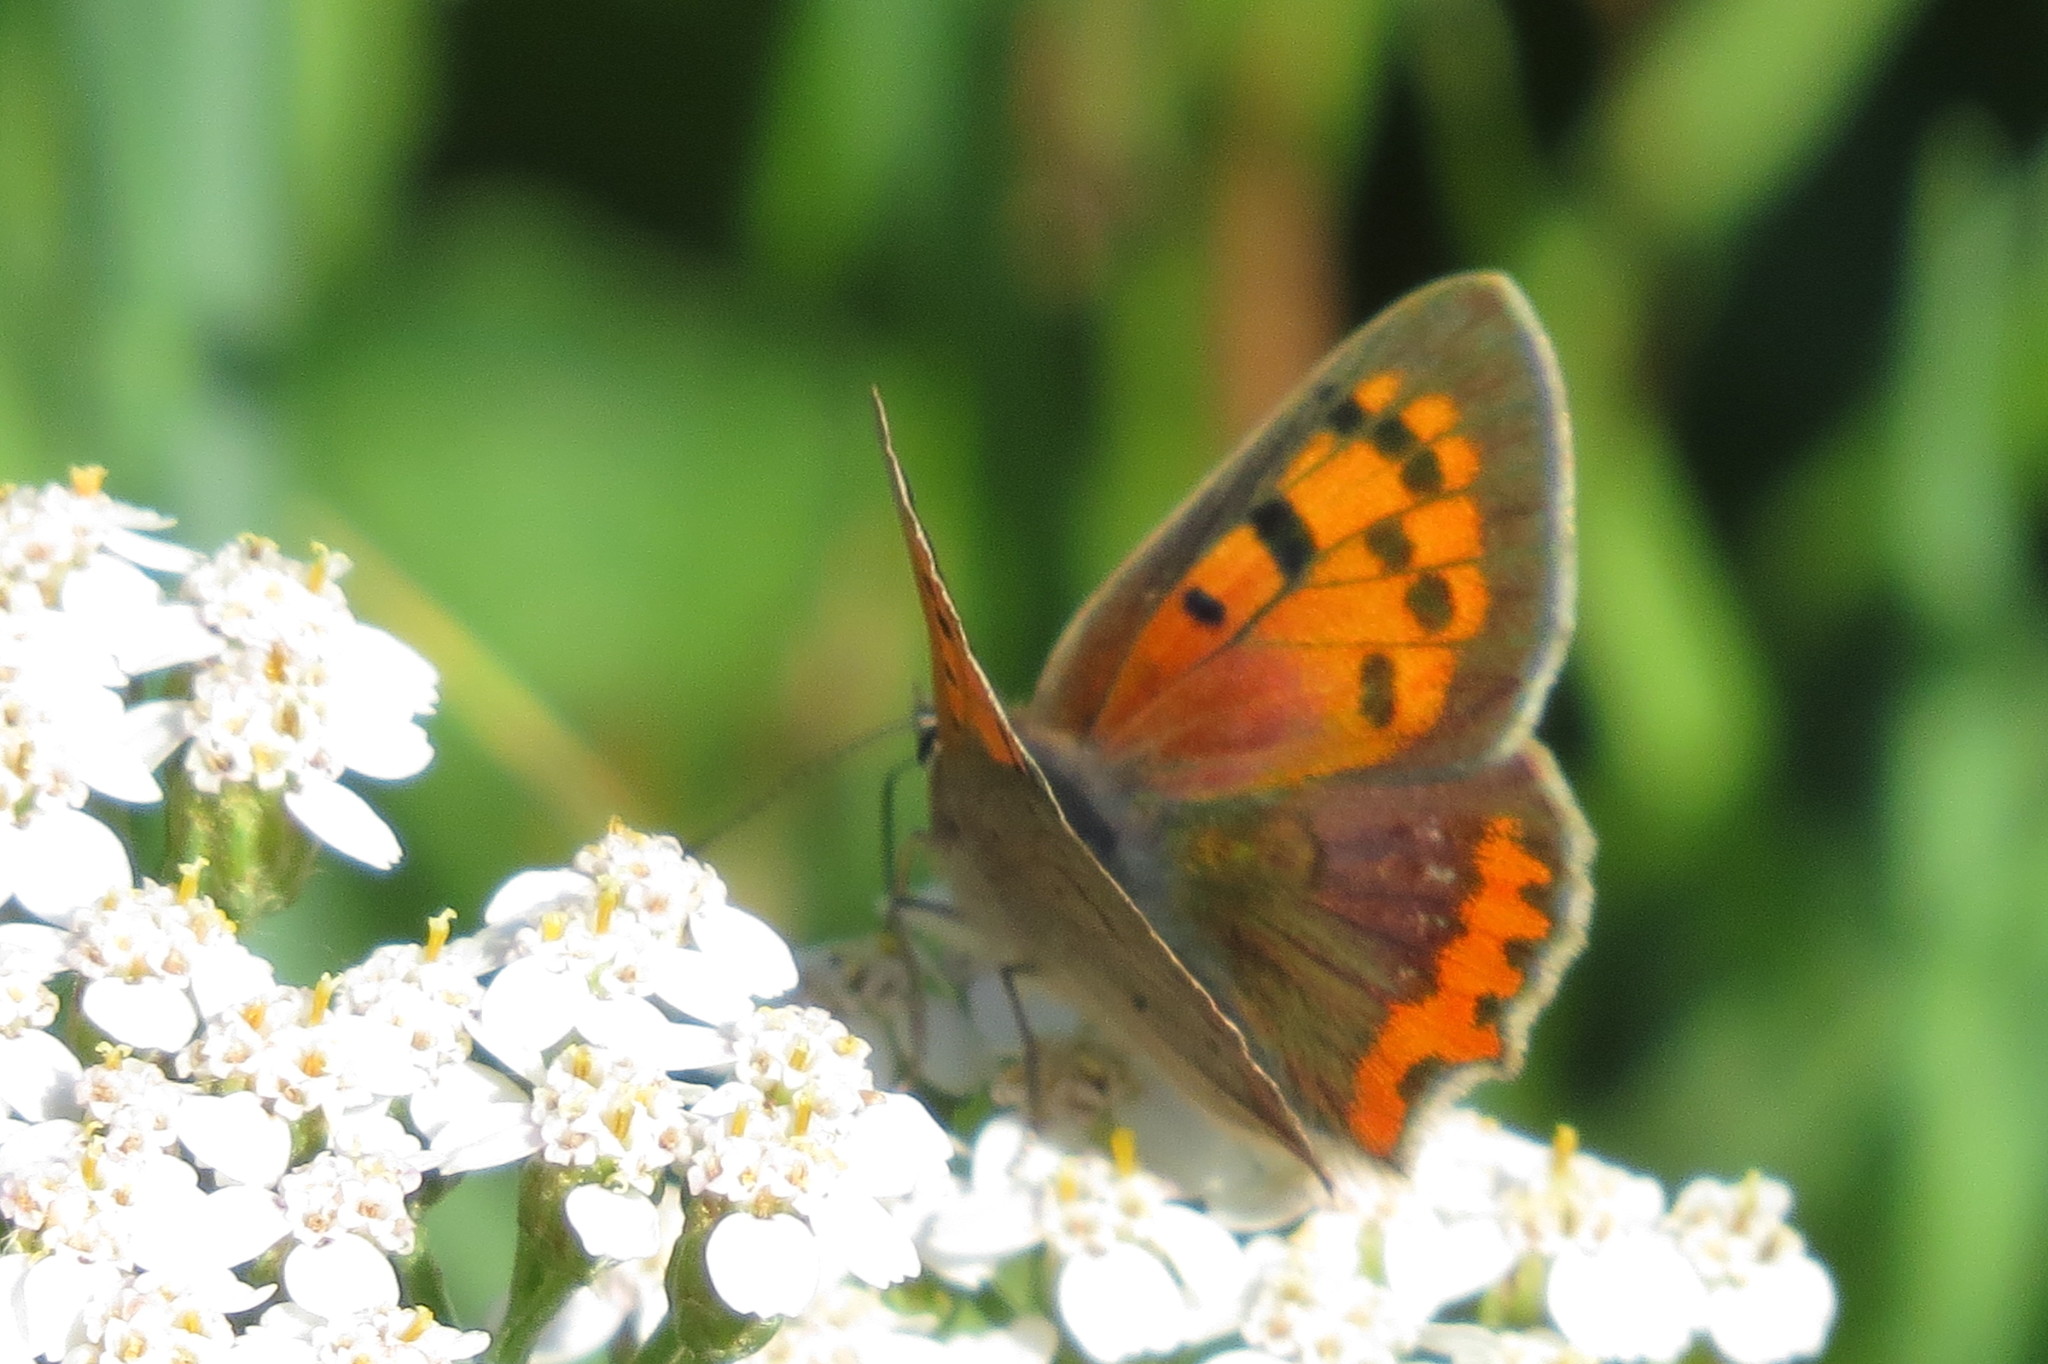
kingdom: Animalia
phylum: Arthropoda
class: Insecta
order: Lepidoptera
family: Lycaenidae
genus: Lycaena
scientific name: Lycaena phlaeas
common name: Small copper
